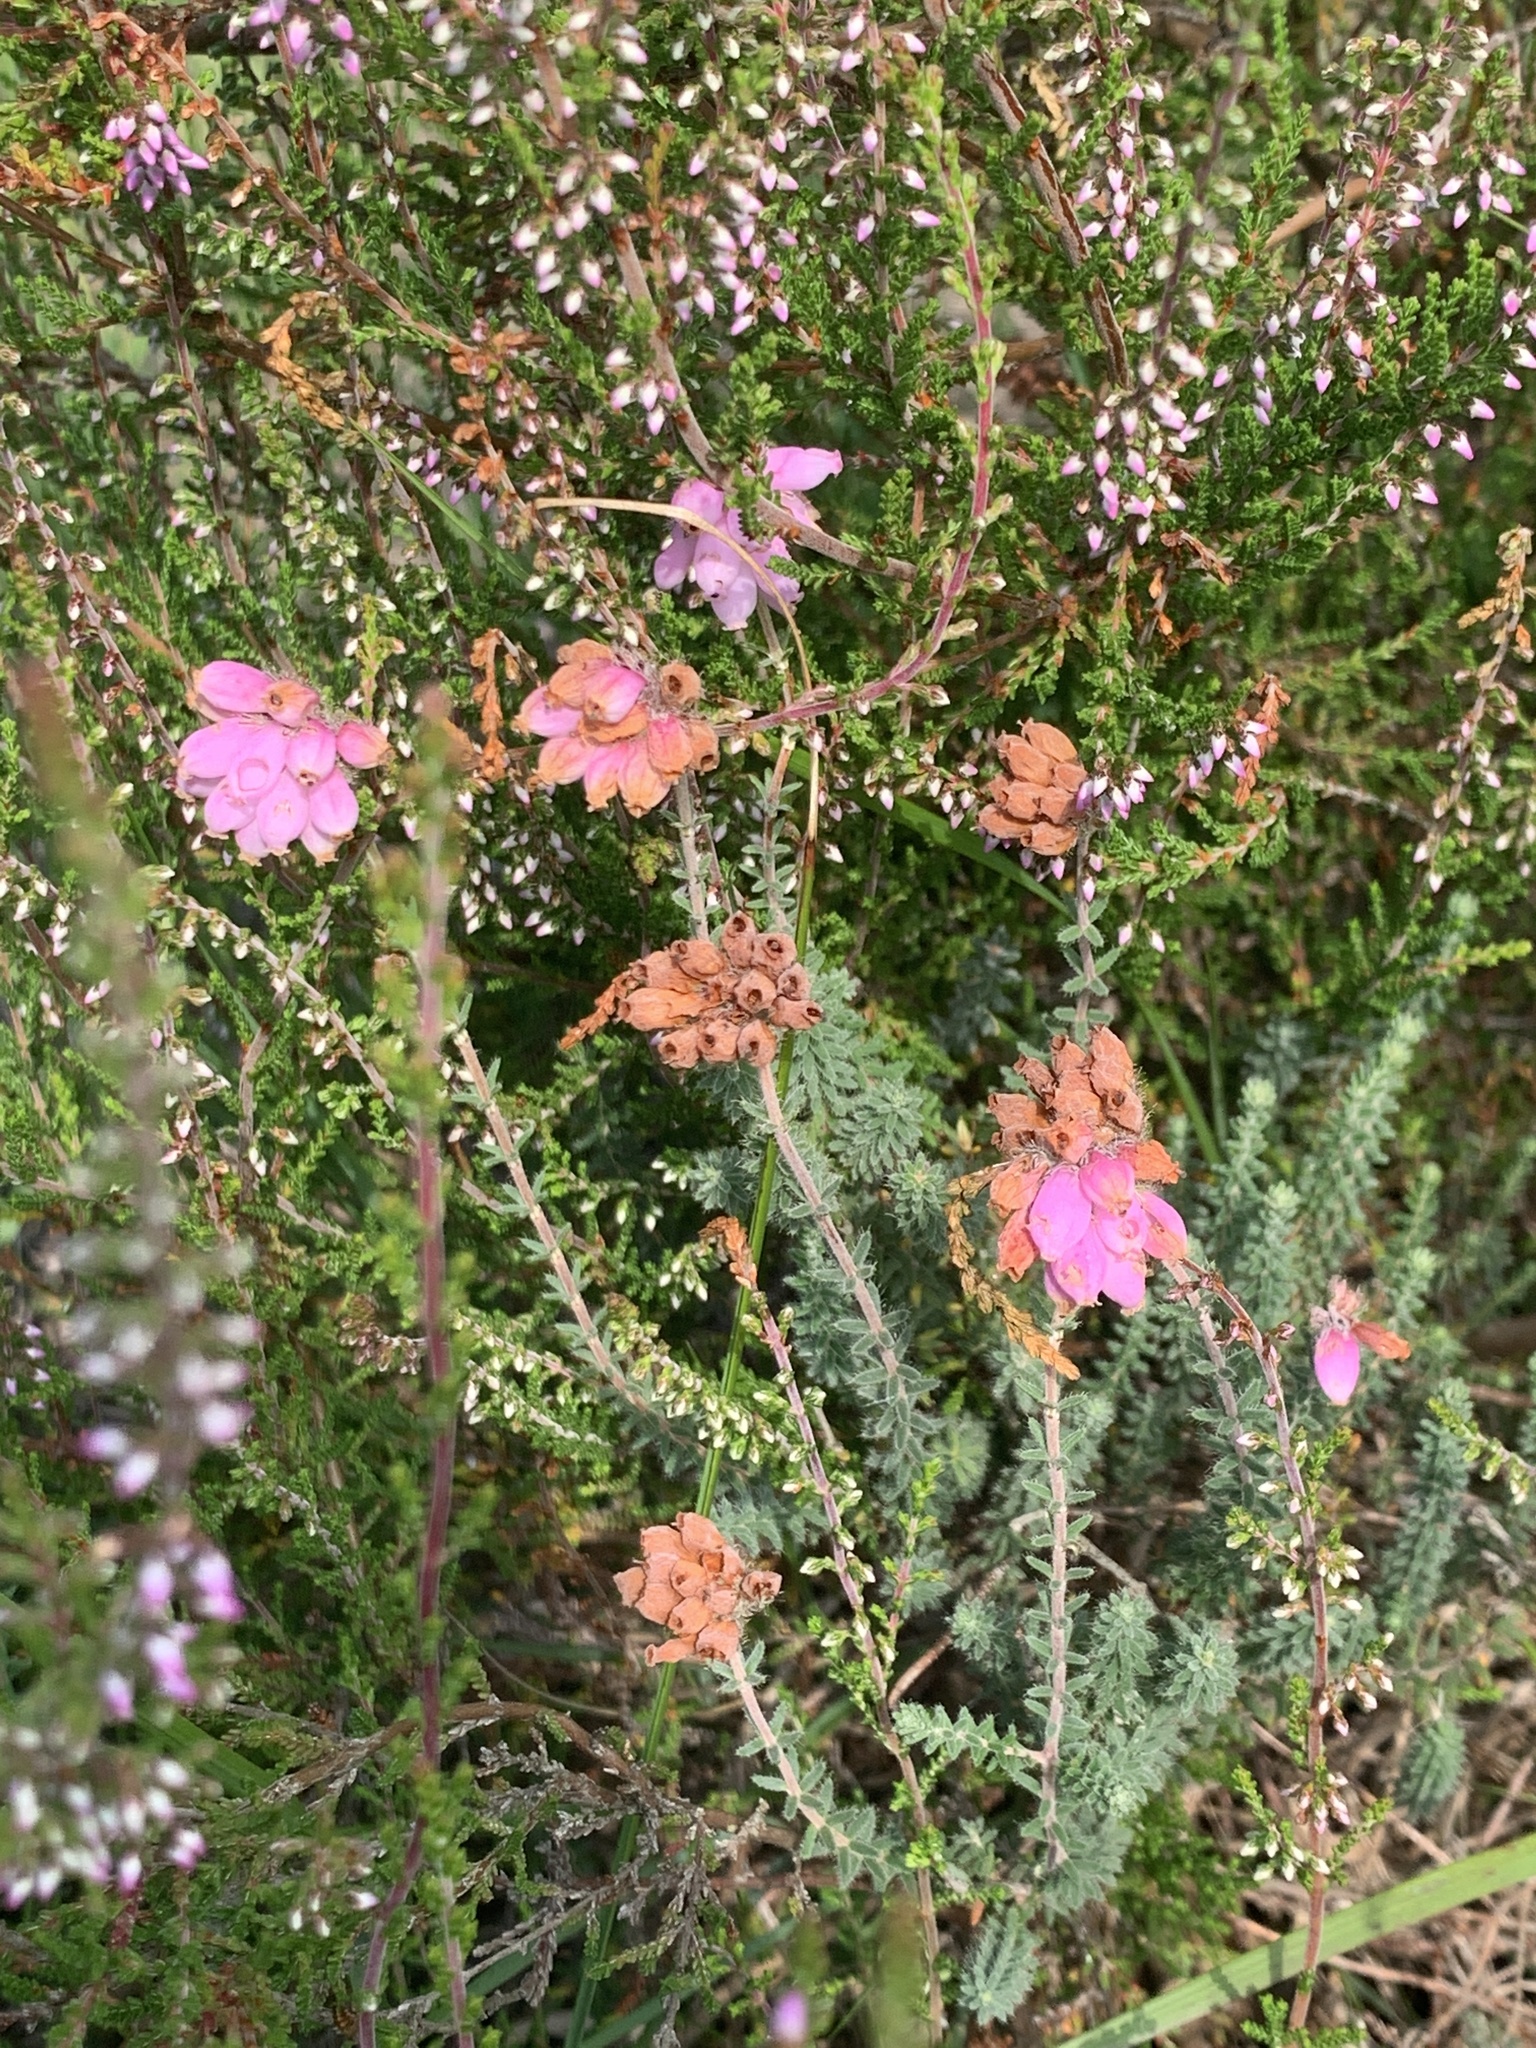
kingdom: Plantae
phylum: Tracheophyta
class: Magnoliopsida
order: Ericales
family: Ericaceae
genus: Erica
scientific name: Erica tetralix
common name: Cross-leaved heath
